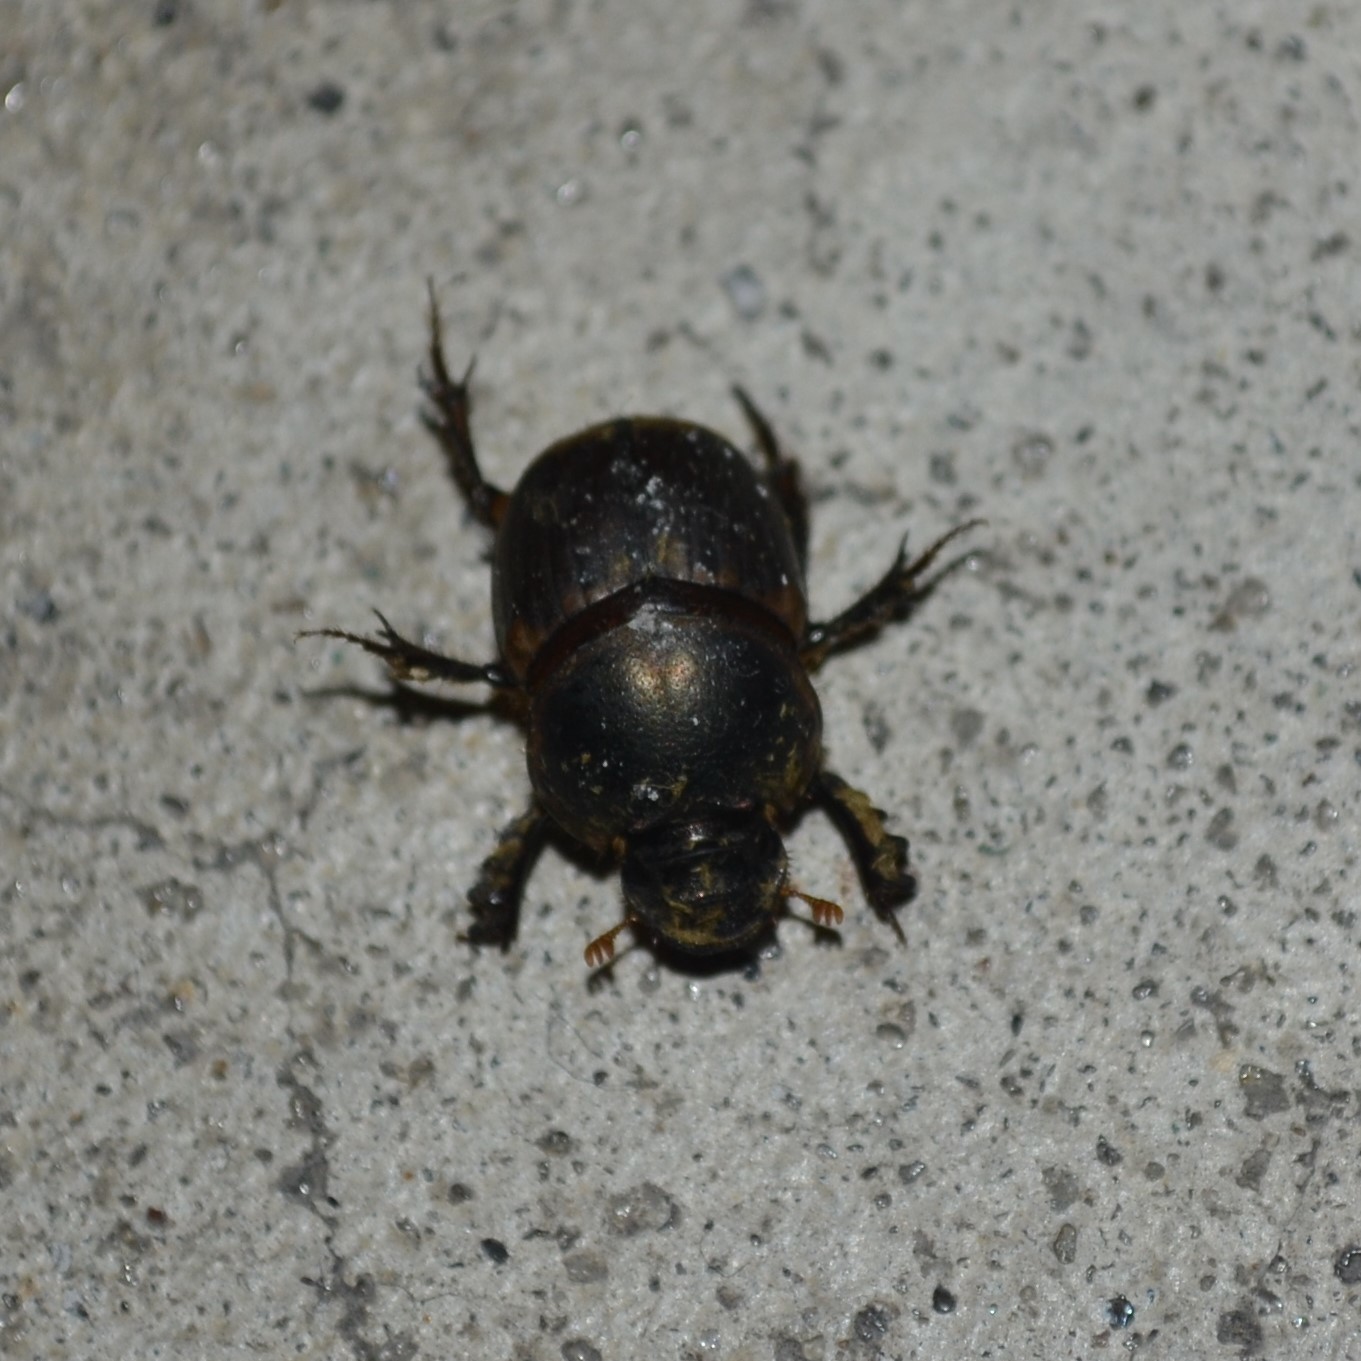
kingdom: Animalia
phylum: Arthropoda
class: Insecta
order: Coleoptera
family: Scarabaeidae
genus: Digitonthophagus
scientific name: Digitonthophagus gazella
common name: Brown dung beetle
